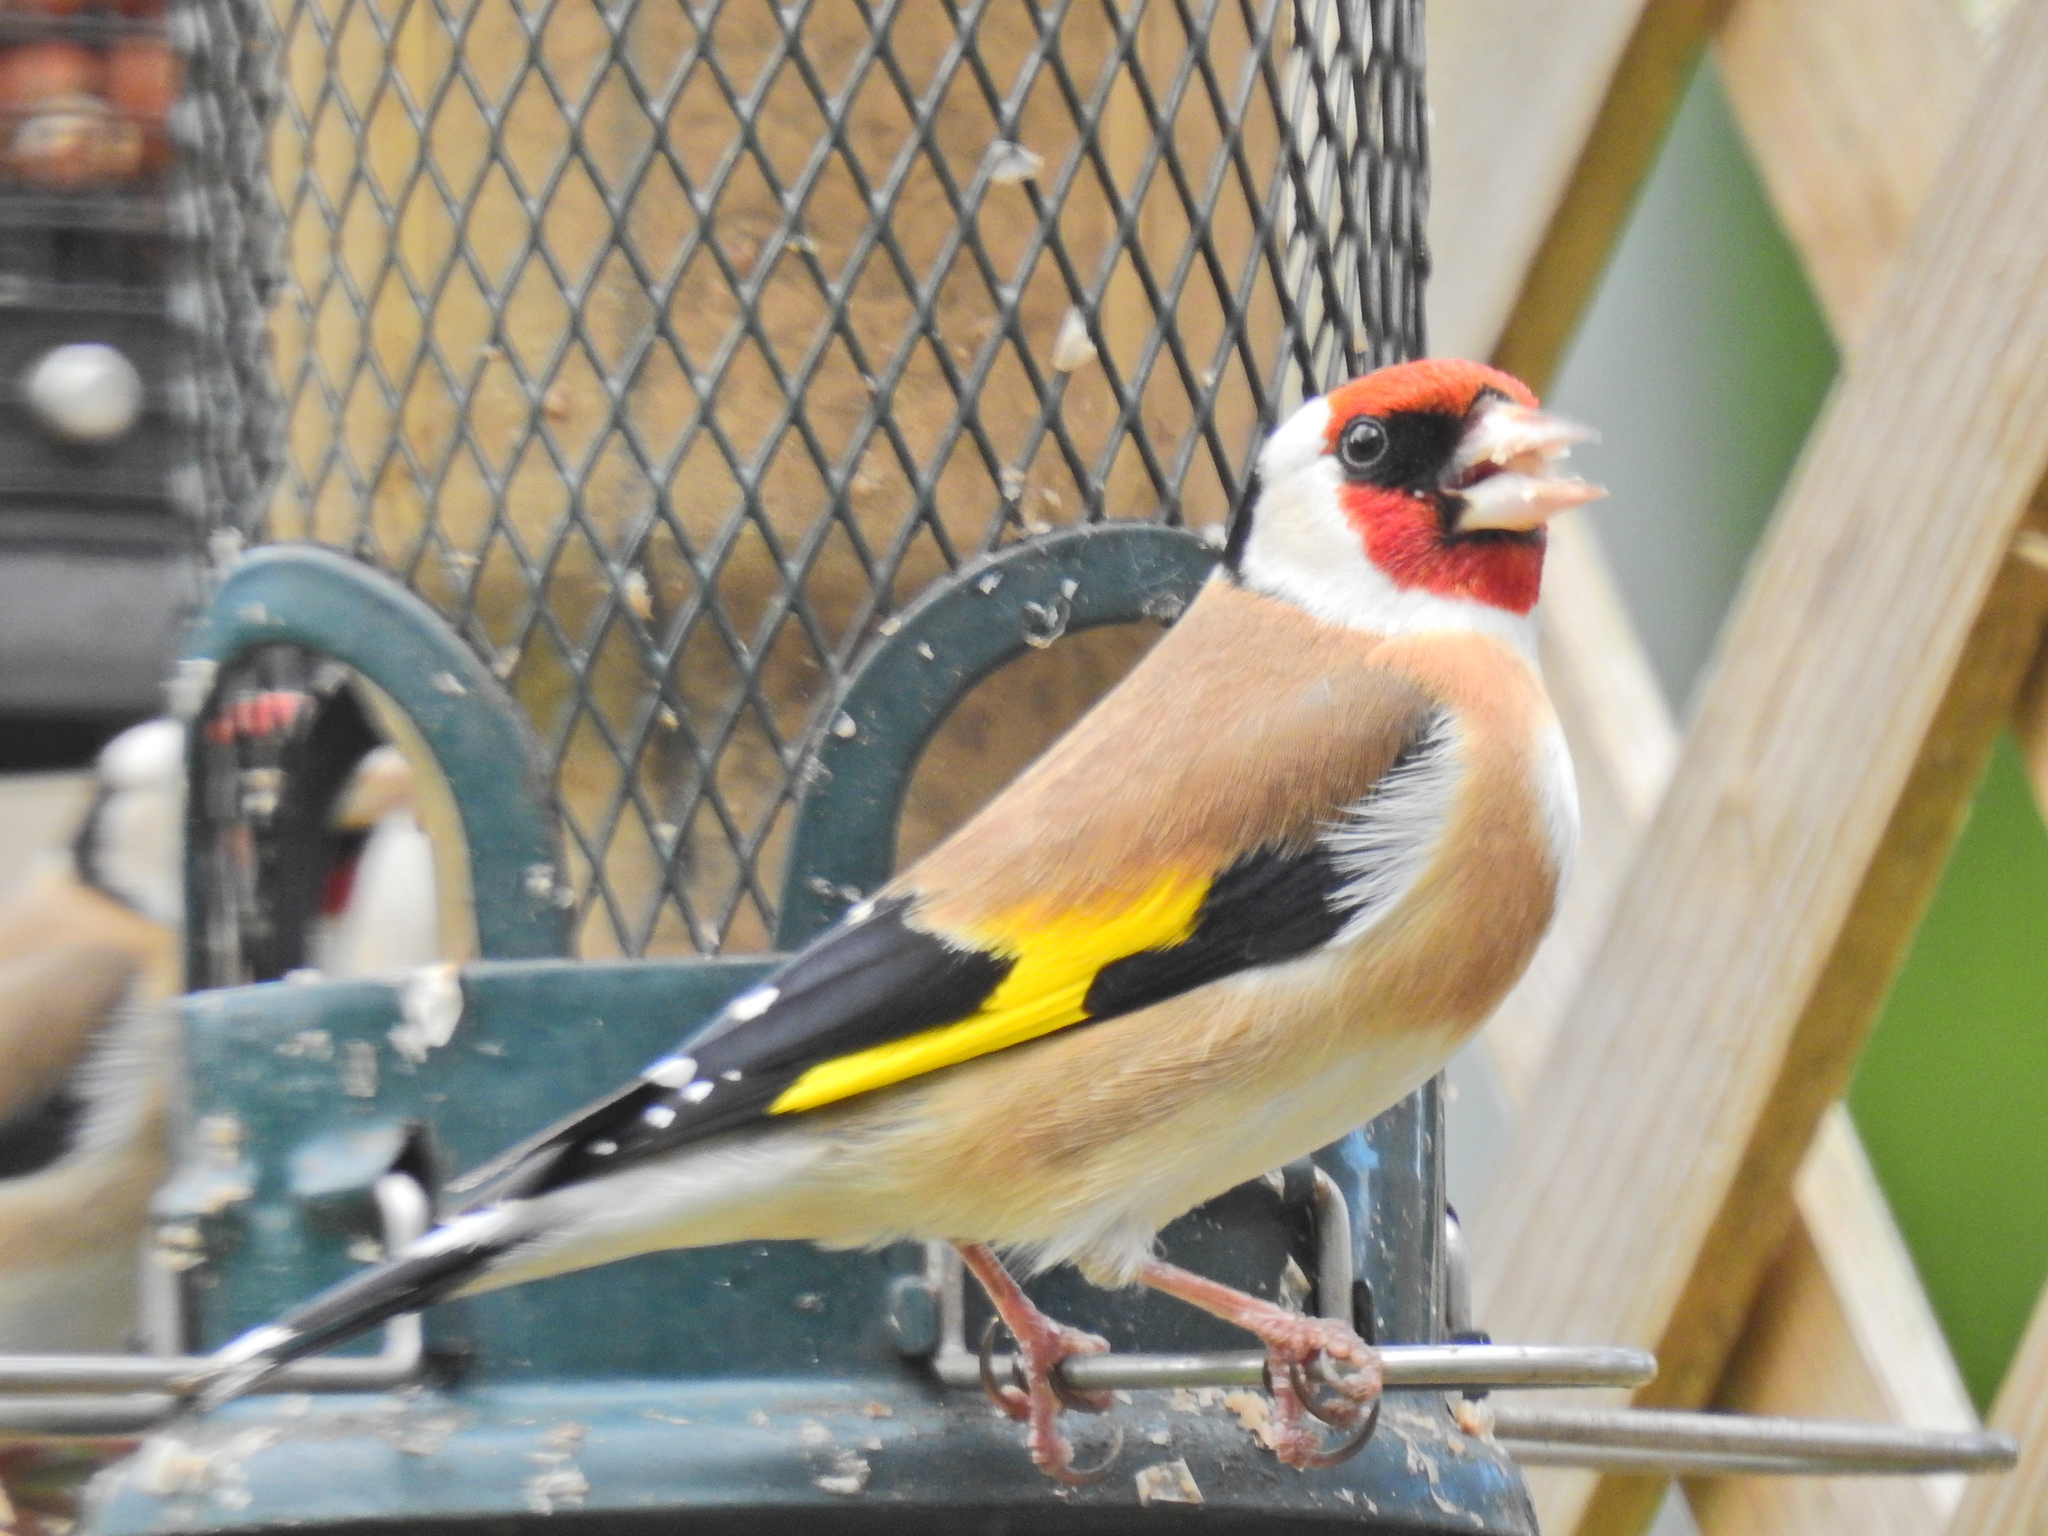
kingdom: Animalia
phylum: Chordata
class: Aves
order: Passeriformes
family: Fringillidae
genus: Carduelis
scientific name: Carduelis carduelis
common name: European goldfinch
